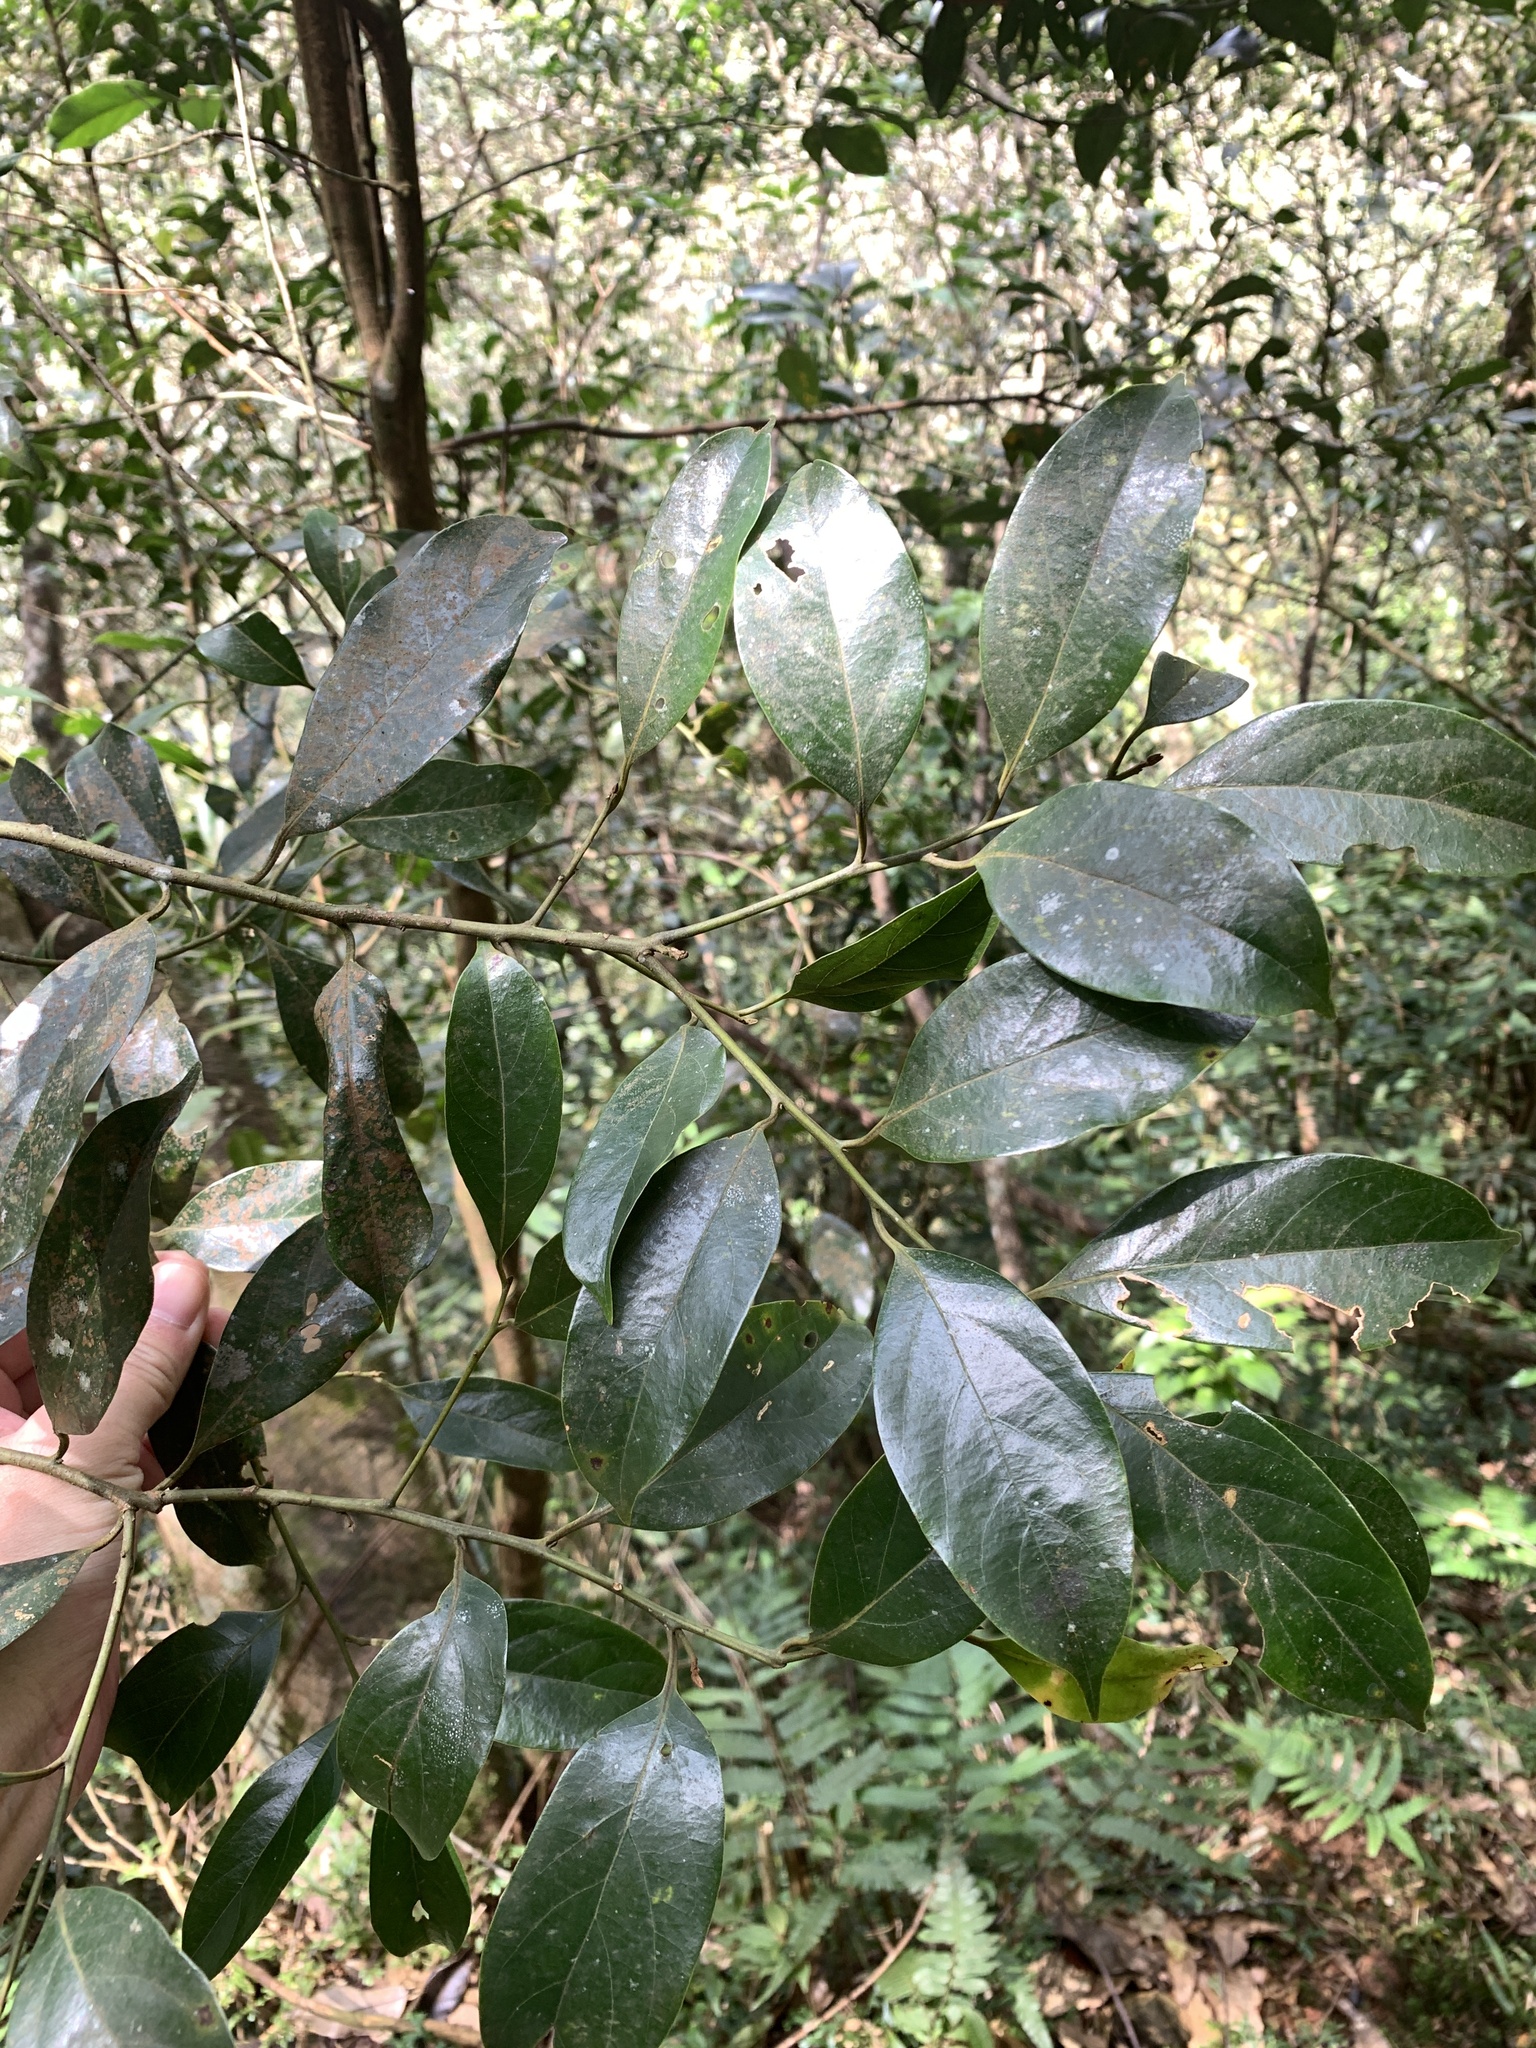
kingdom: Plantae
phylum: Tracheophyta
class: Magnoliopsida
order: Laurales
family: Lauraceae
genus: Cryptocarya
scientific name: Cryptocarya concinna
